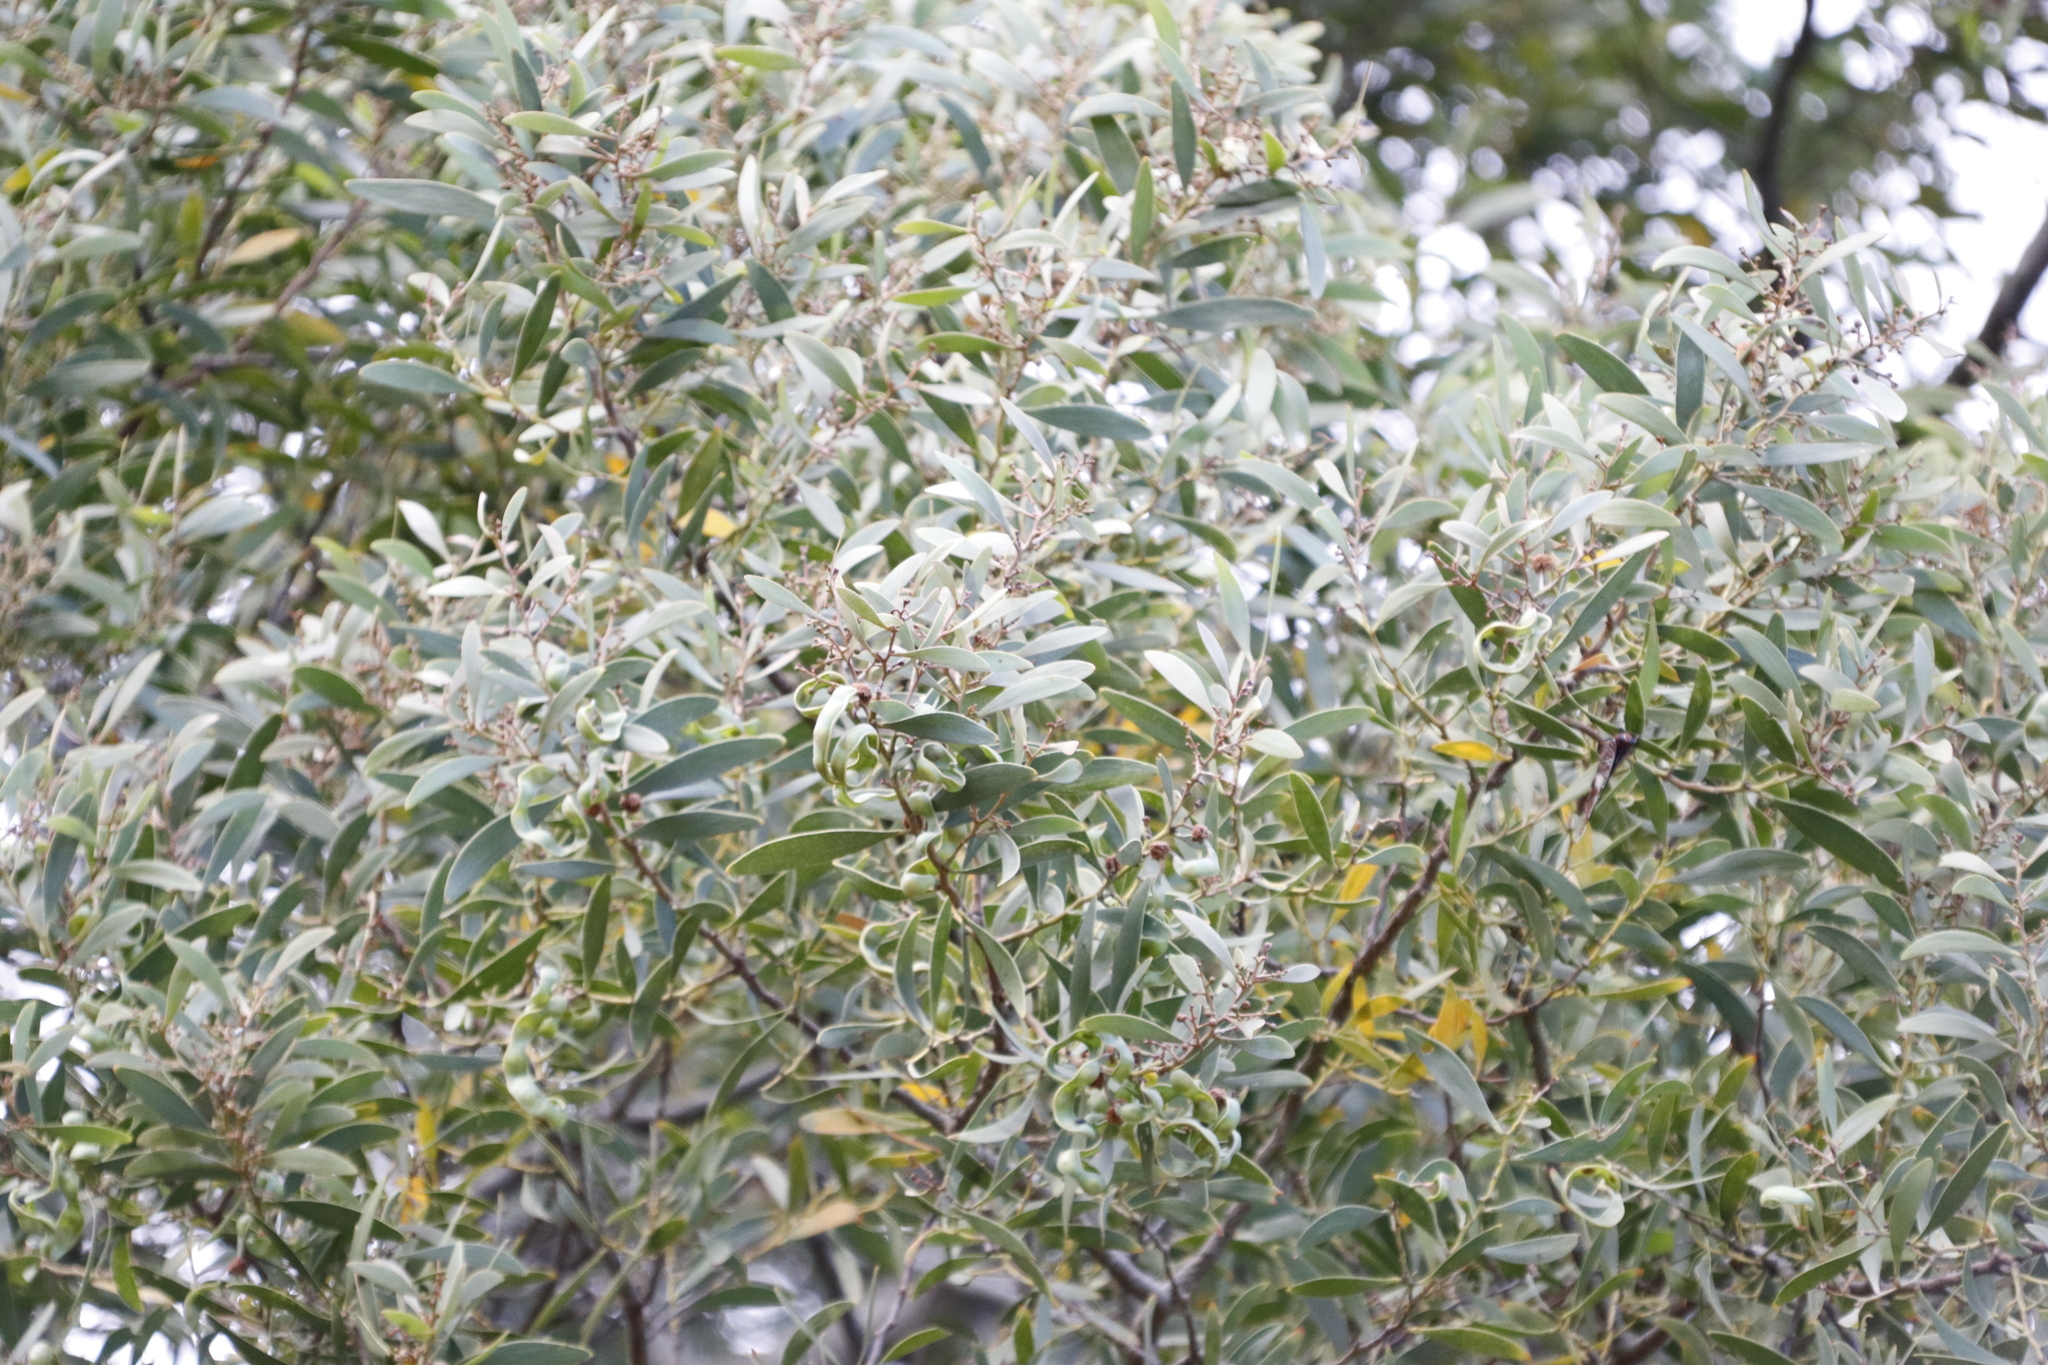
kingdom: Plantae
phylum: Tracheophyta
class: Magnoliopsida
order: Fabales
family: Fabaceae
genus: Acacia
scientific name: Acacia melanoxylon
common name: Blackwood
